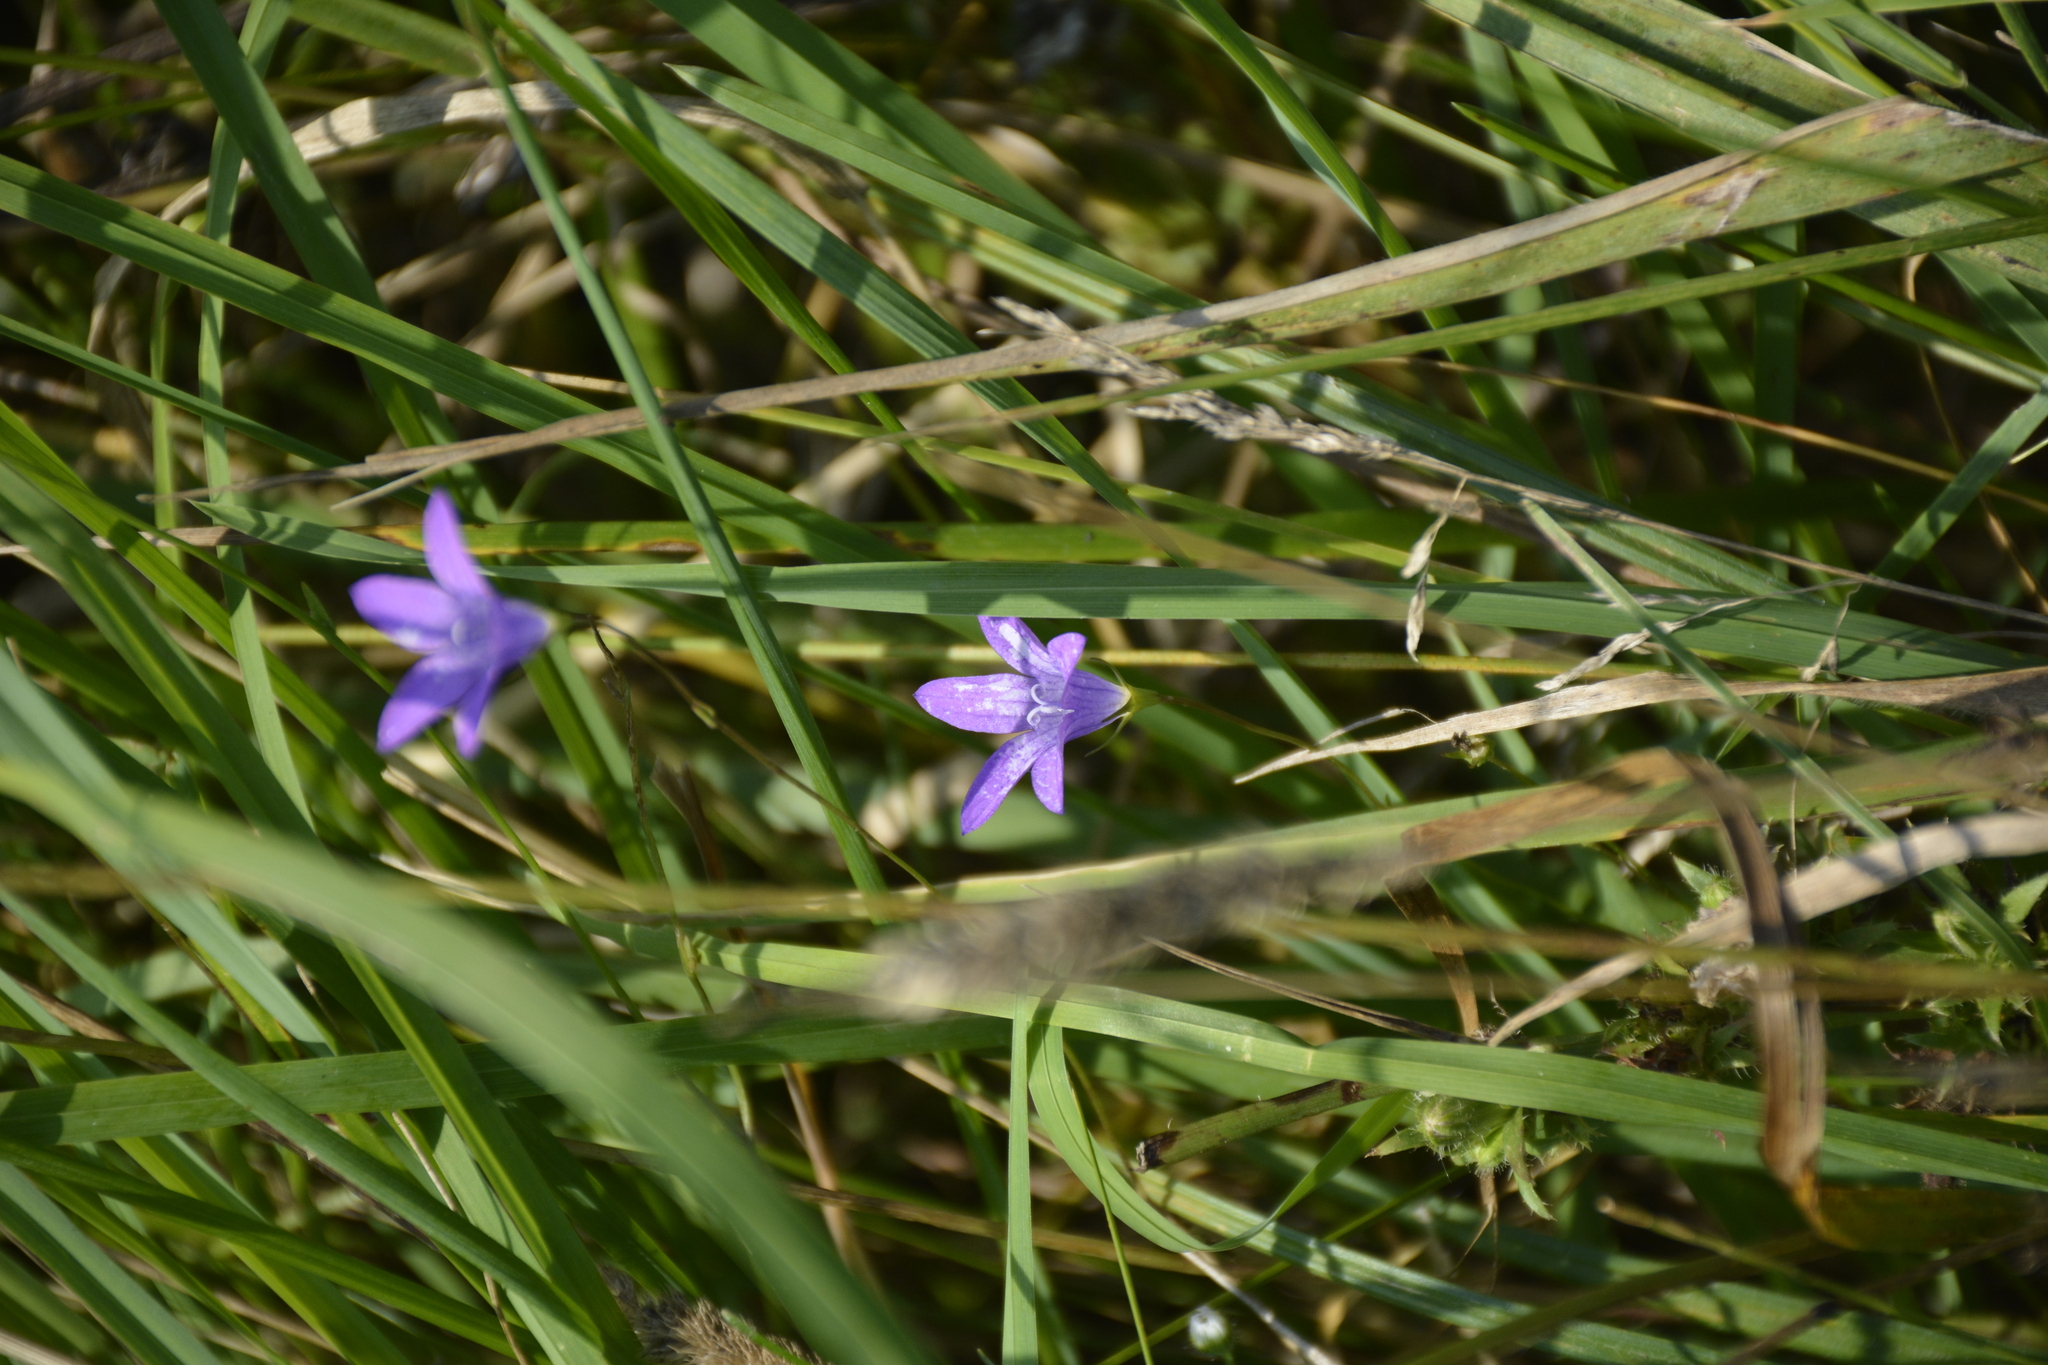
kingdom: Plantae
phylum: Tracheophyta
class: Magnoliopsida
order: Asterales
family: Campanulaceae
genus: Campanula
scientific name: Campanula patula
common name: Spreading bellflower
